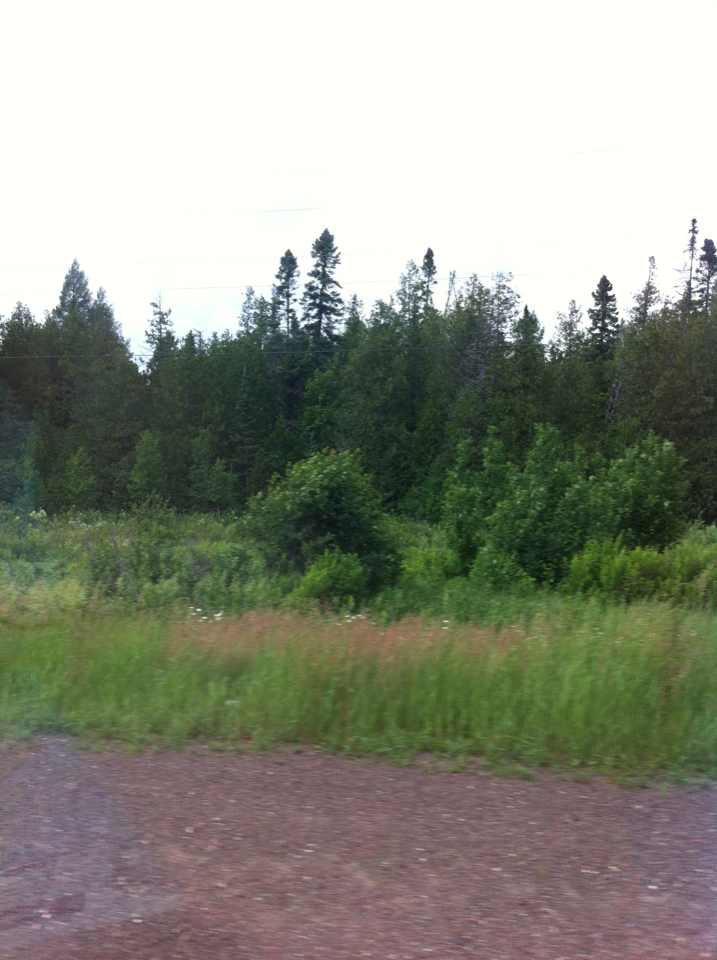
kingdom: Plantae
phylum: Tracheophyta
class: Pinopsida
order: Pinales
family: Cupressaceae
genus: Thuja
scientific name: Thuja occidentalis
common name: Northern white-cedar
